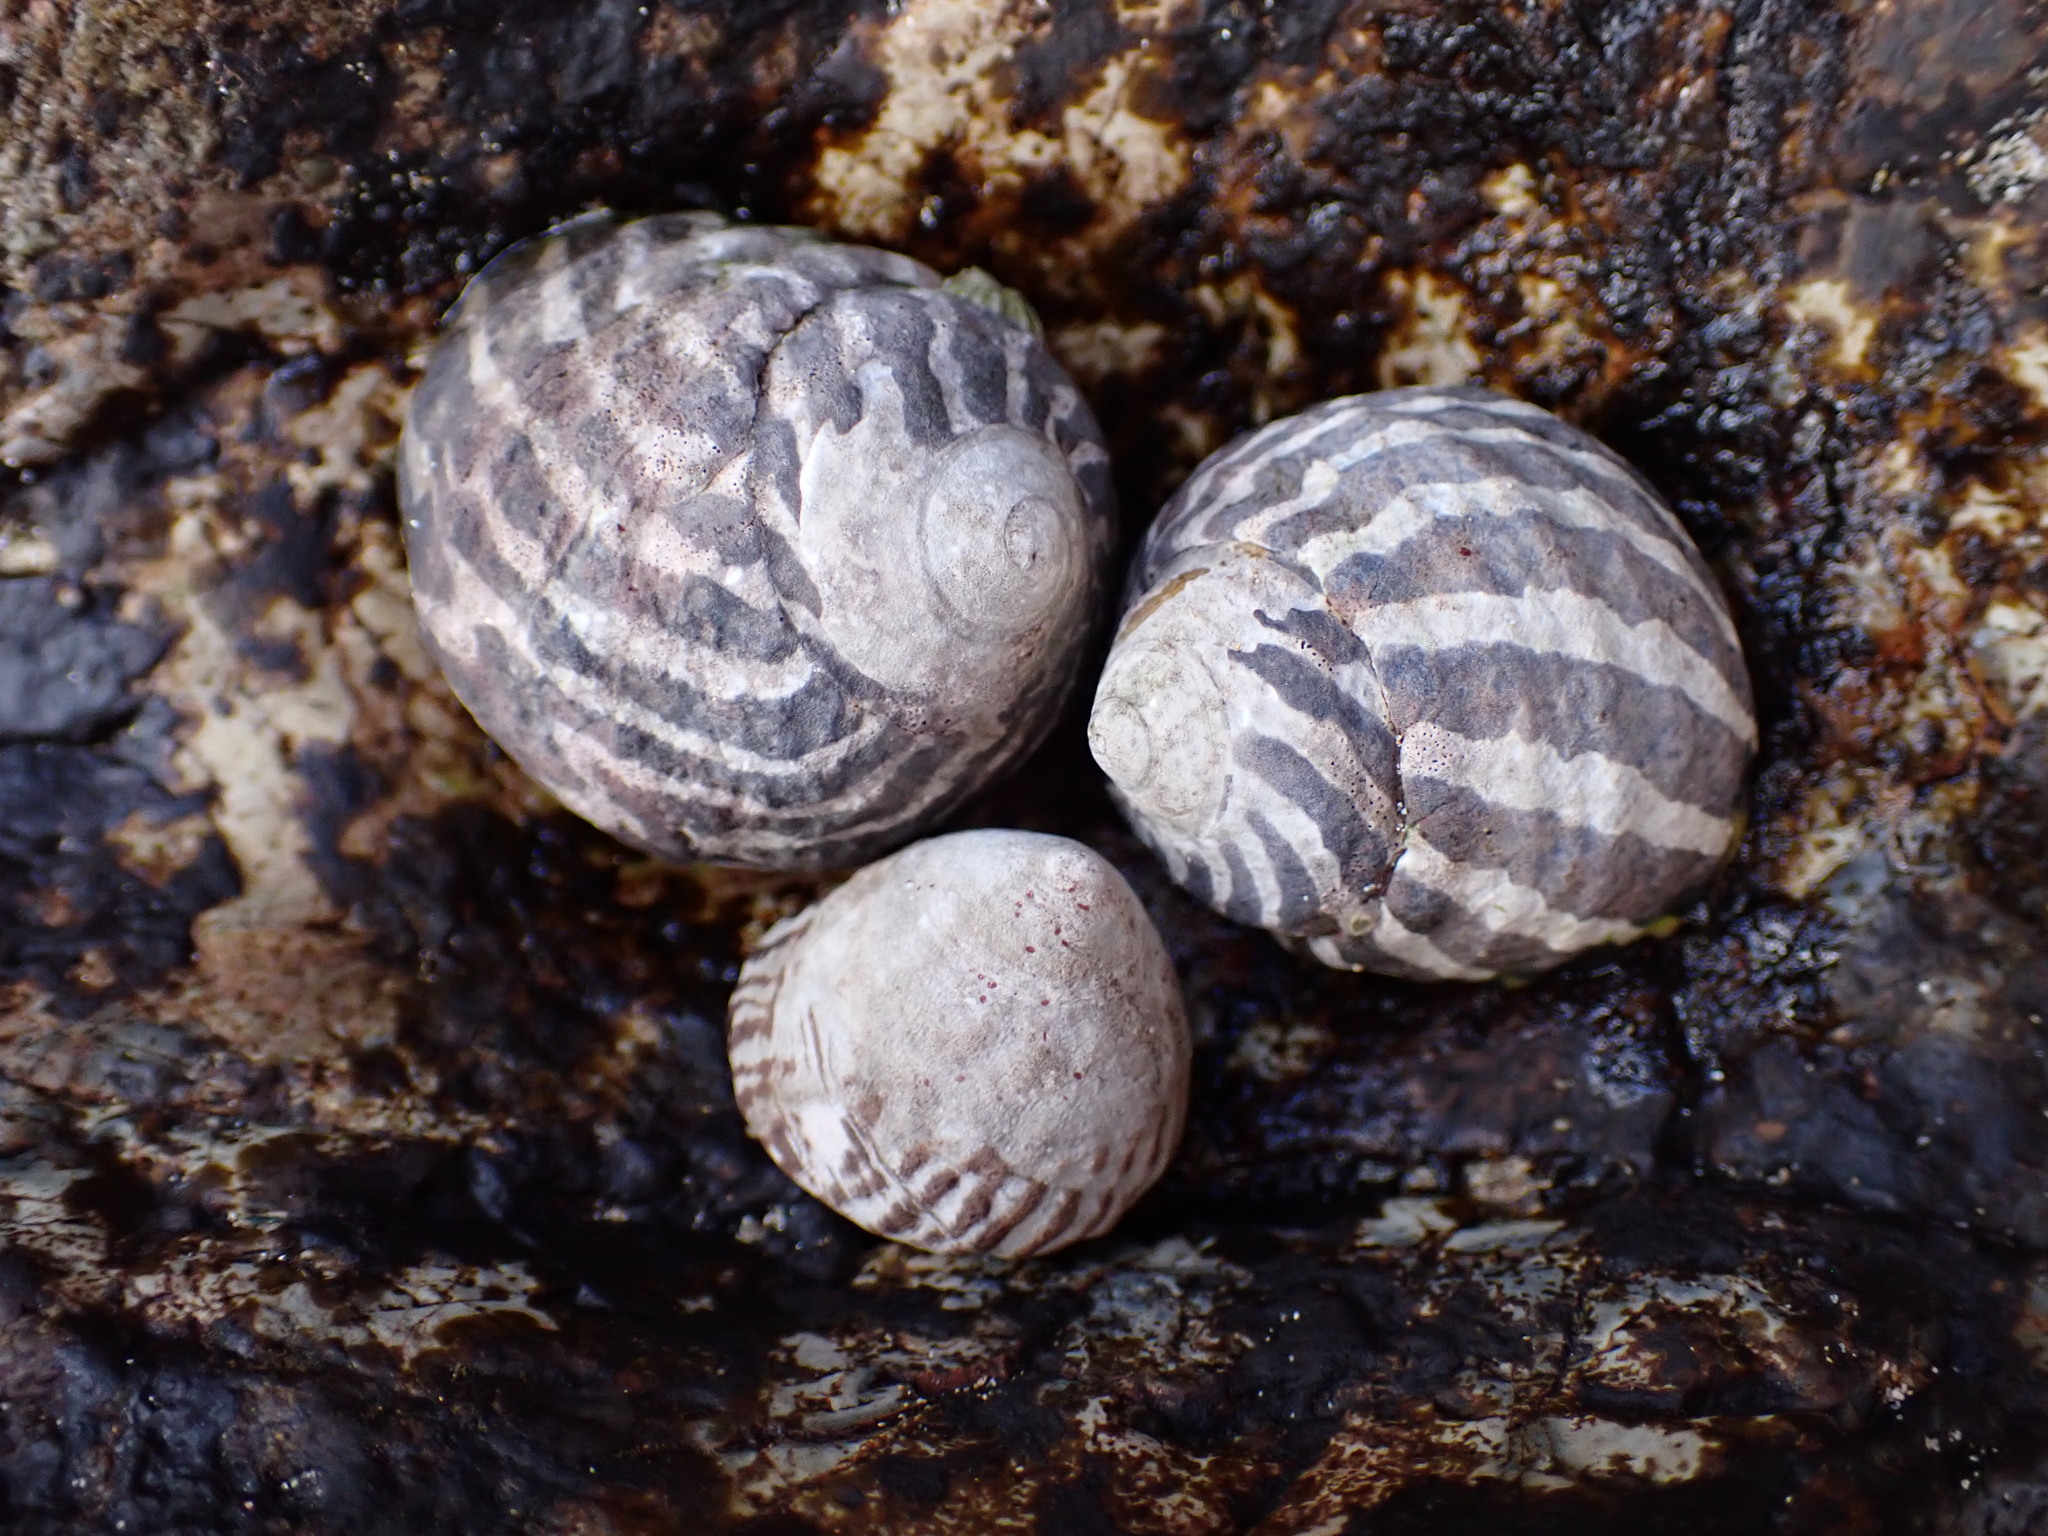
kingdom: Animalia
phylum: Mollusca
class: Gastropoda
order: Trochida
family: Trochidae
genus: Austrocochlea
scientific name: Austrocochlea porcata
